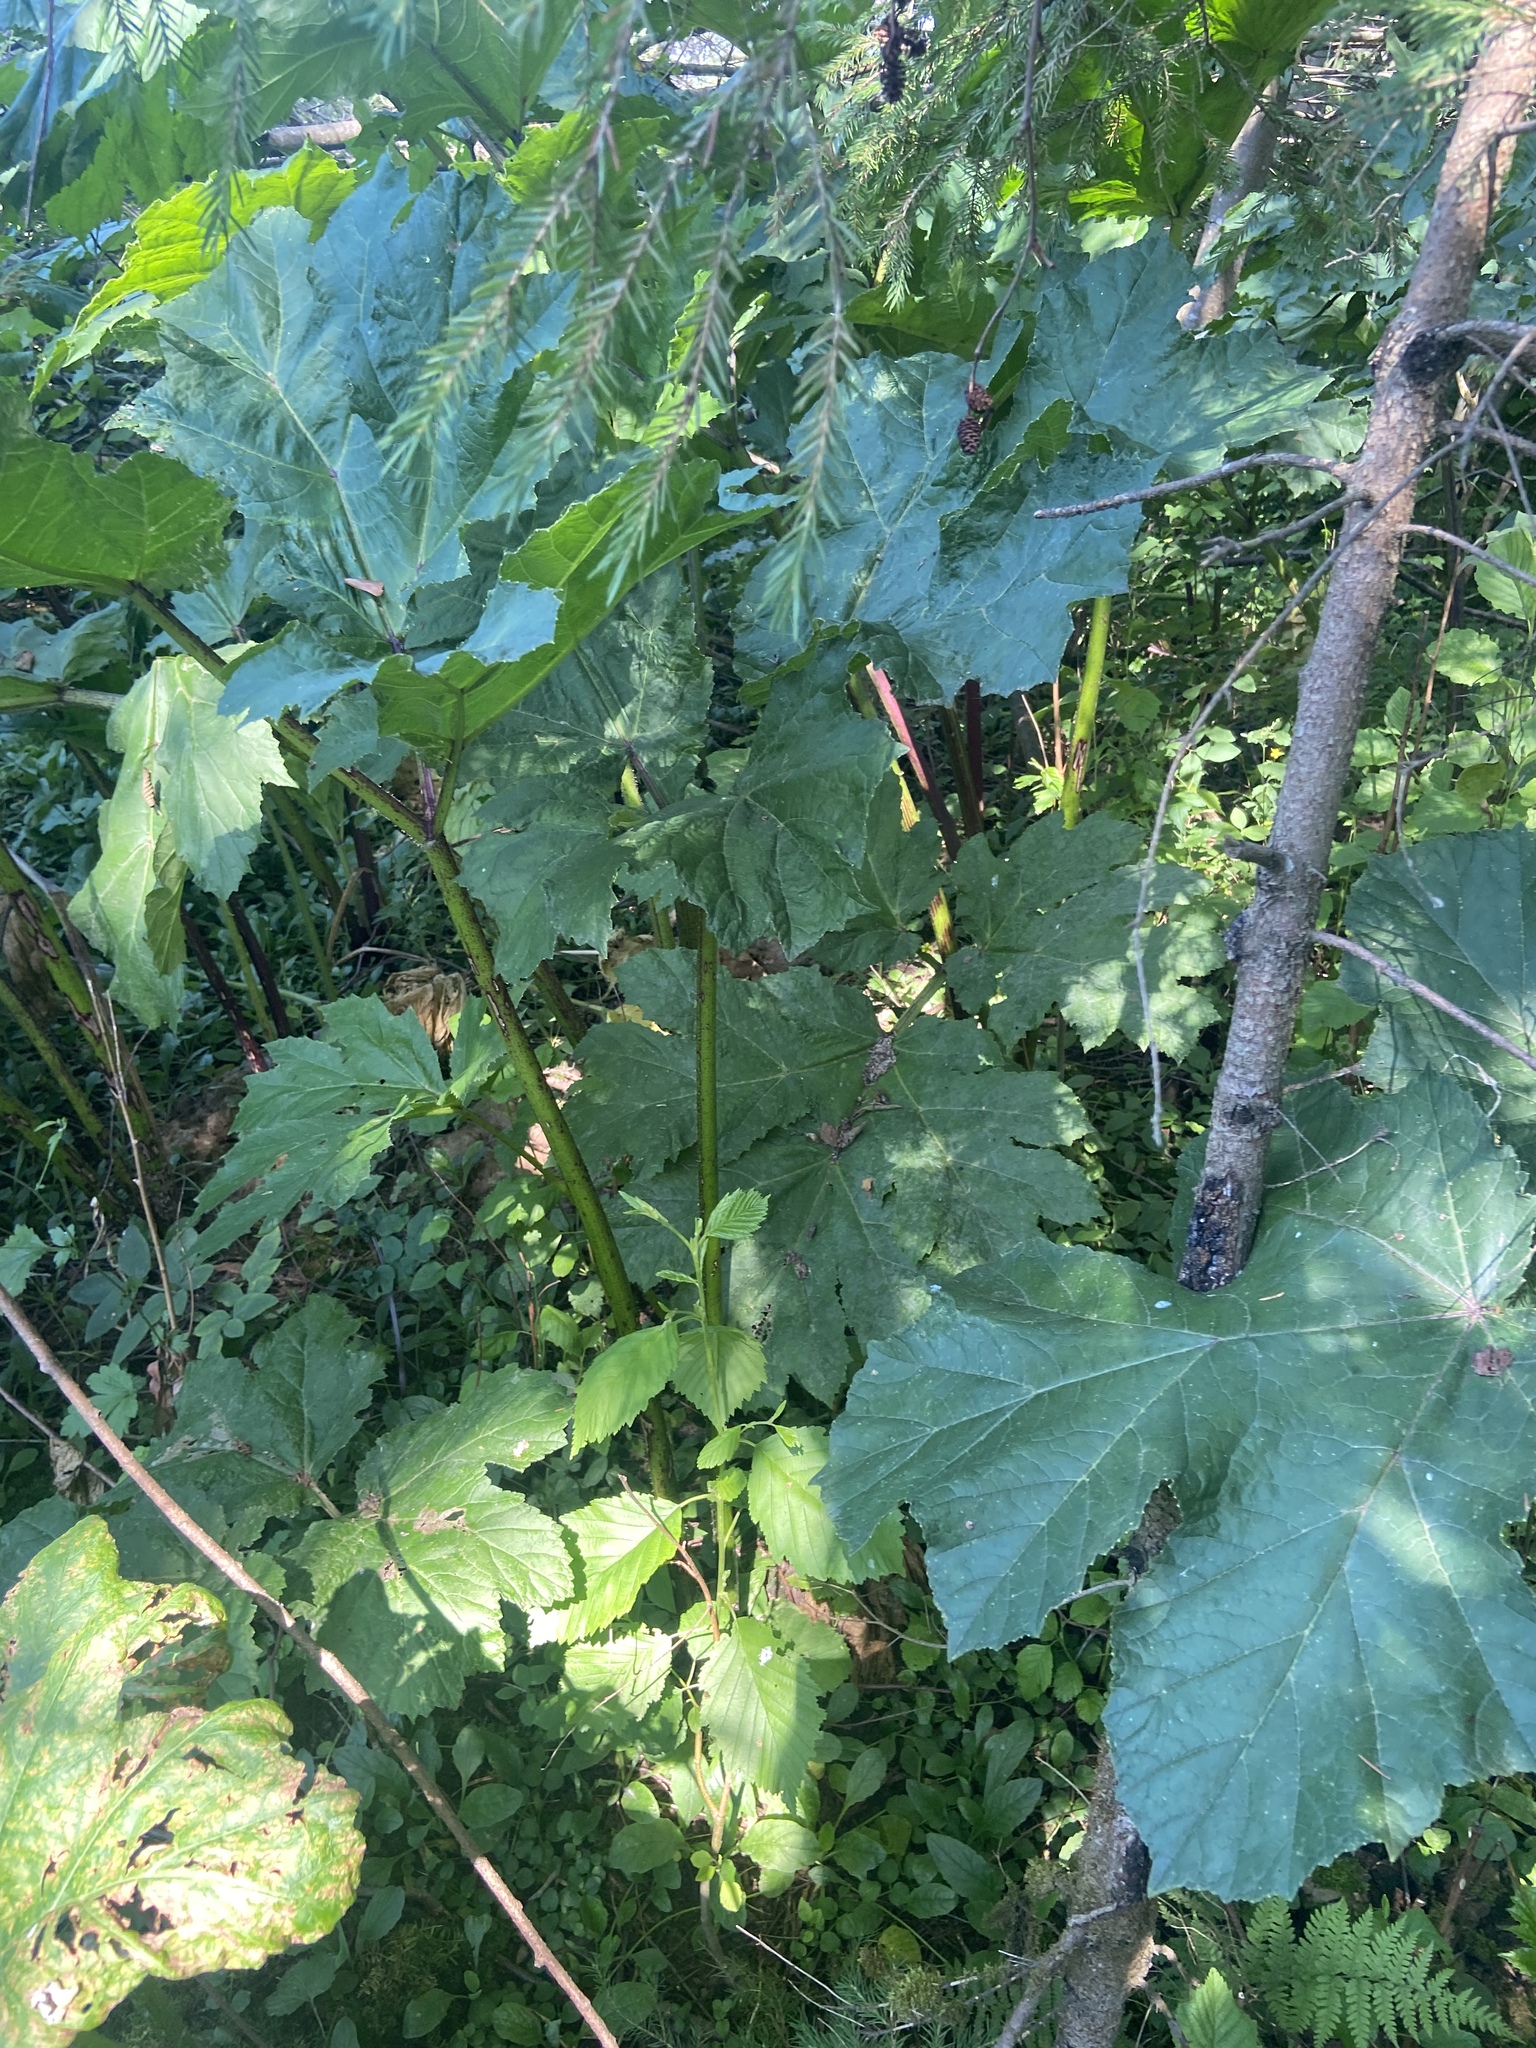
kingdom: Plantae
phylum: Tracheophyta
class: Magnoliopsida
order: Apiales
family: Apiaceae
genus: Heracleum
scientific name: Heracleum sosnowskyi
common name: Sosnowsky's hogweed
